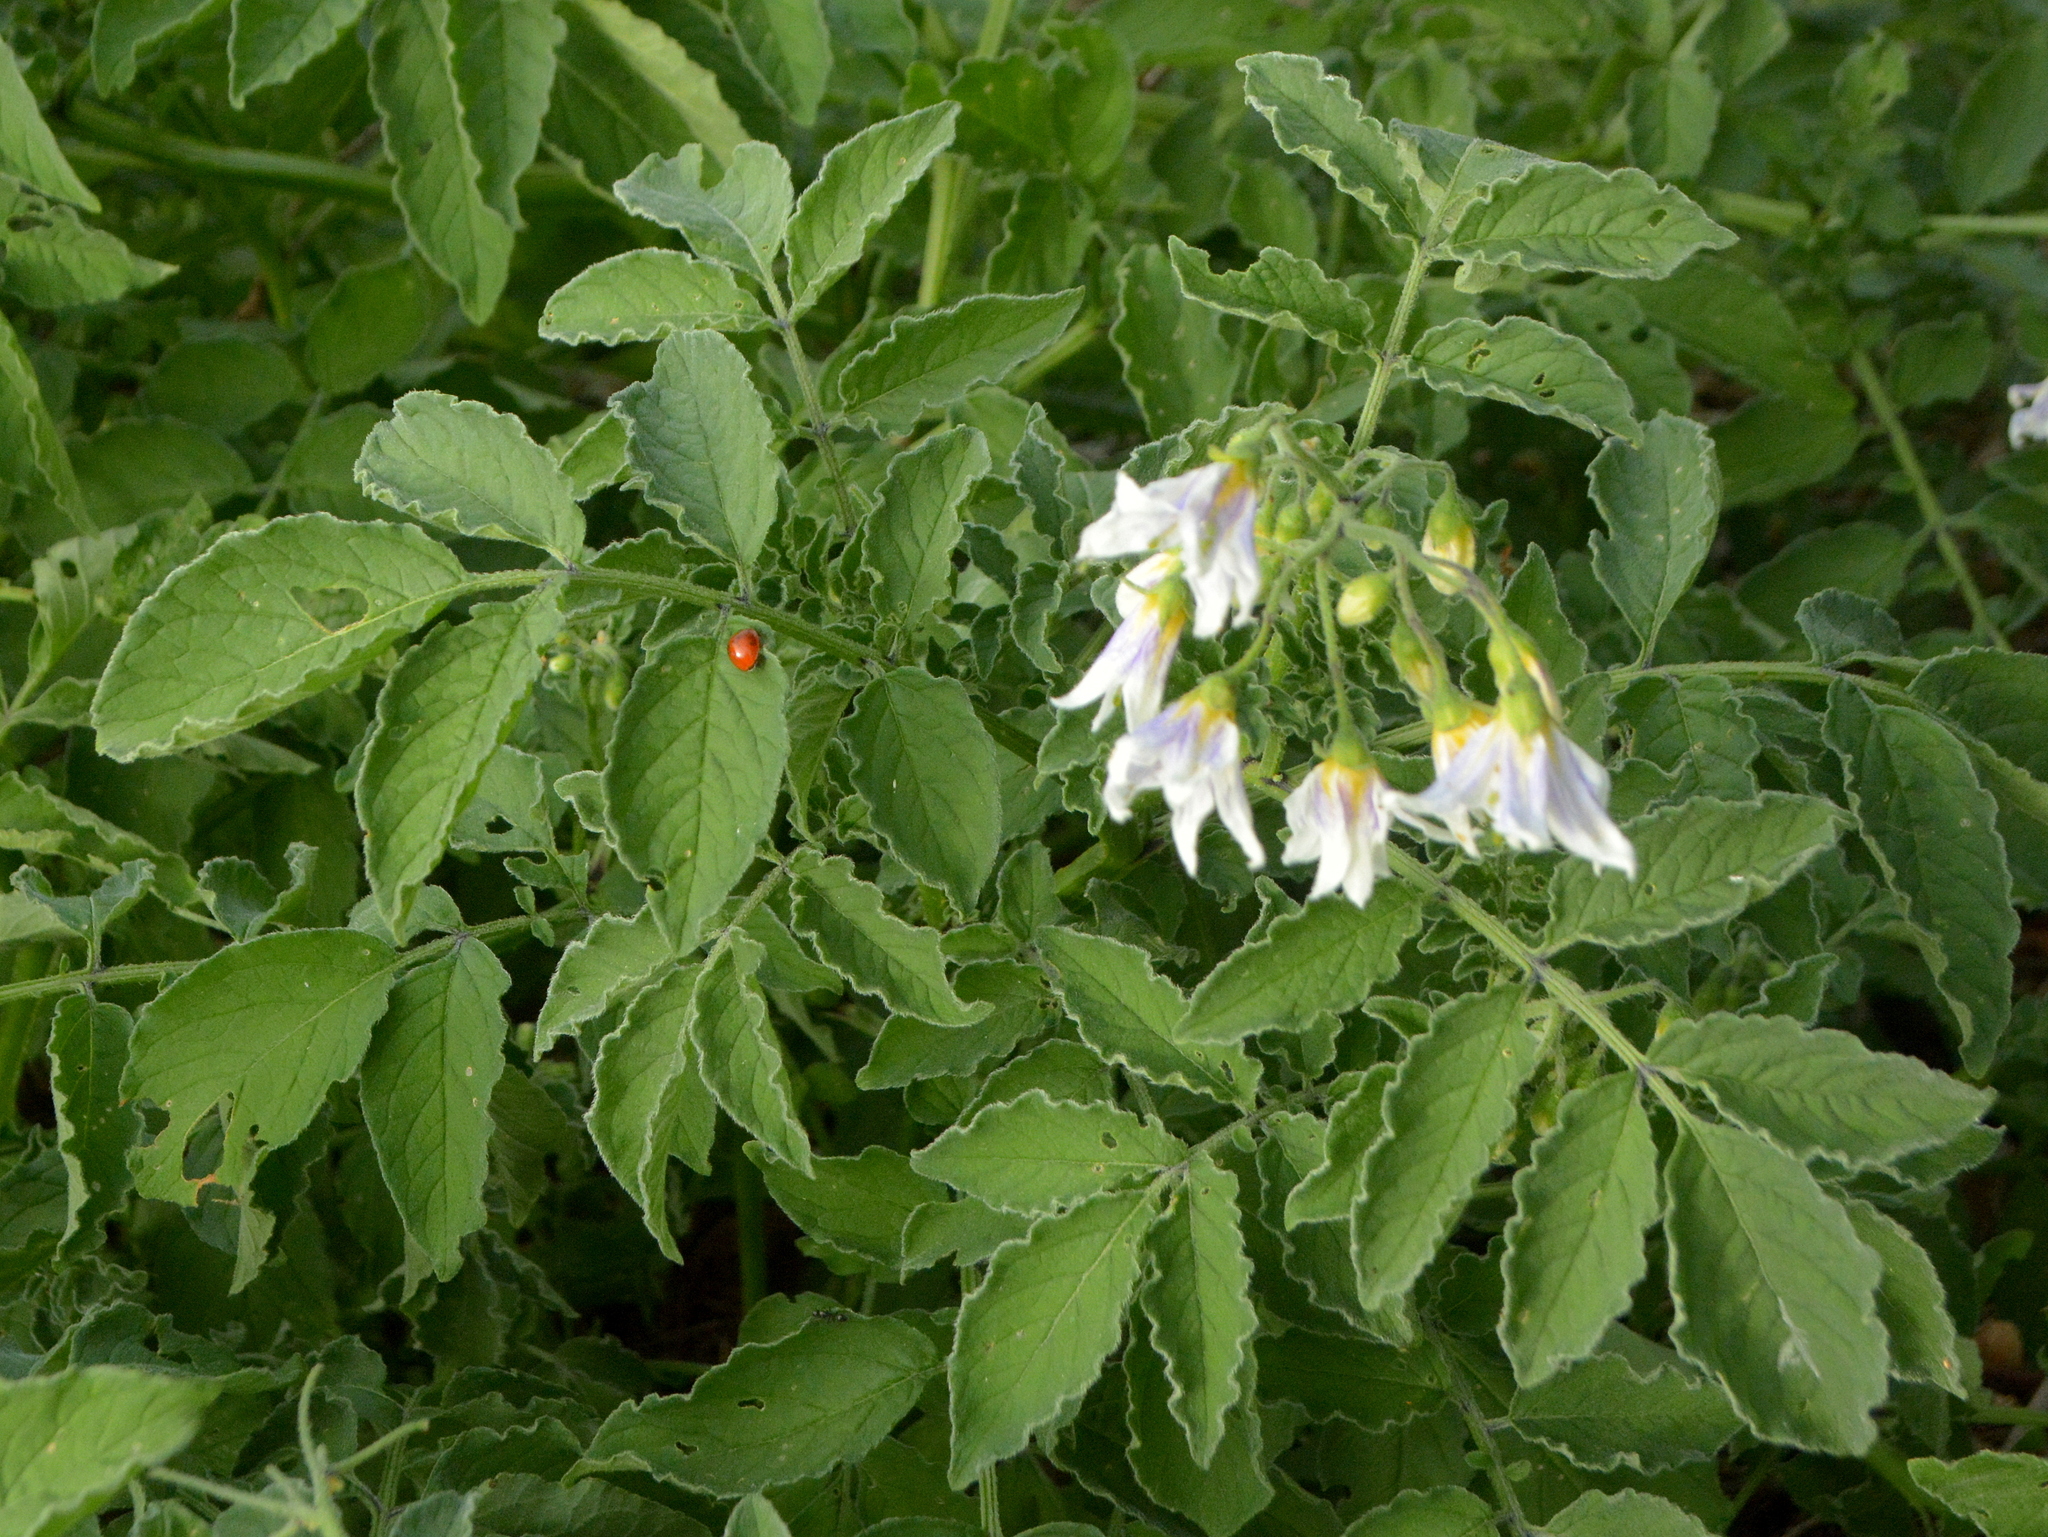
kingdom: Plantae
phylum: Tracheophyta
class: Magnoliopsida
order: Solanales
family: Solanaceae
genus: Solanum
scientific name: Solanum commersonii
